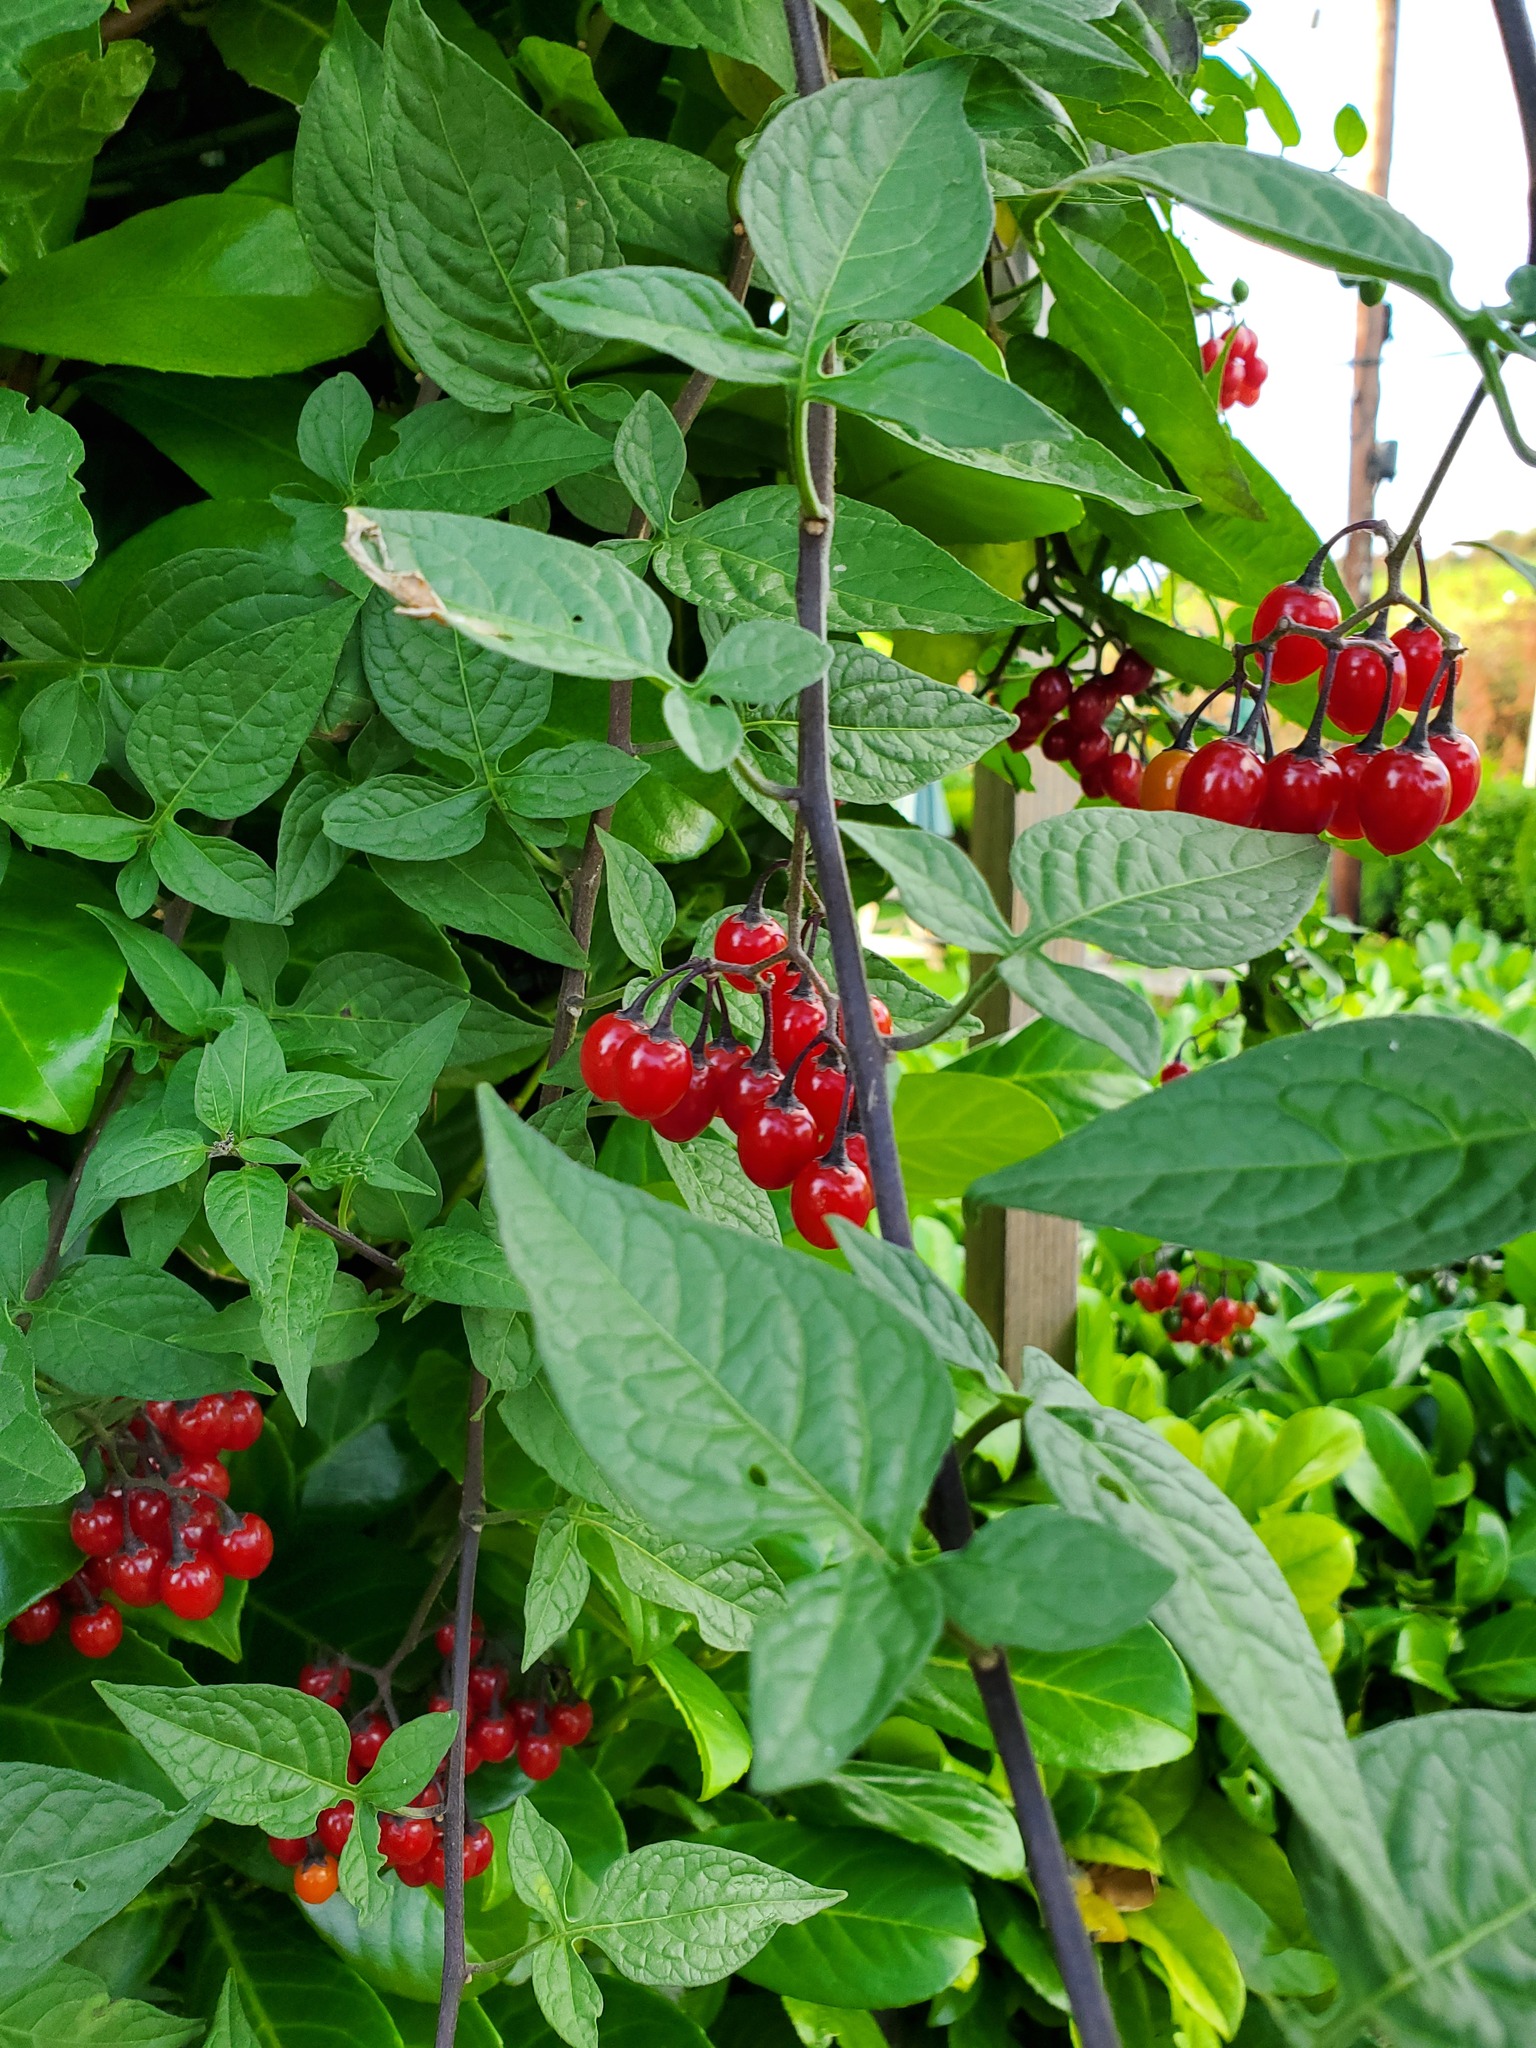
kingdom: Plantae
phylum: Tracheophyta
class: Magnoliopsida
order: Solanales
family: Solanaceae
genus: Solanum
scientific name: Solanum dulcamara
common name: Climbing nightshade
